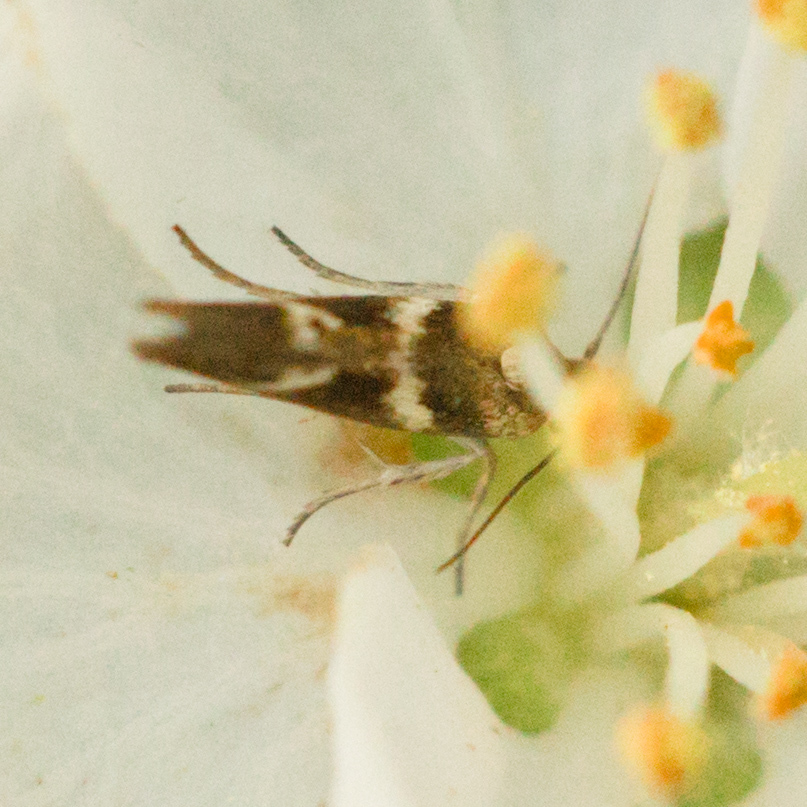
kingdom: Animalia
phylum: Arthropoda
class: Insecta
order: Lepidoptera
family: Scythrididae
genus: Scythris
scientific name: Scythris trivinctella
